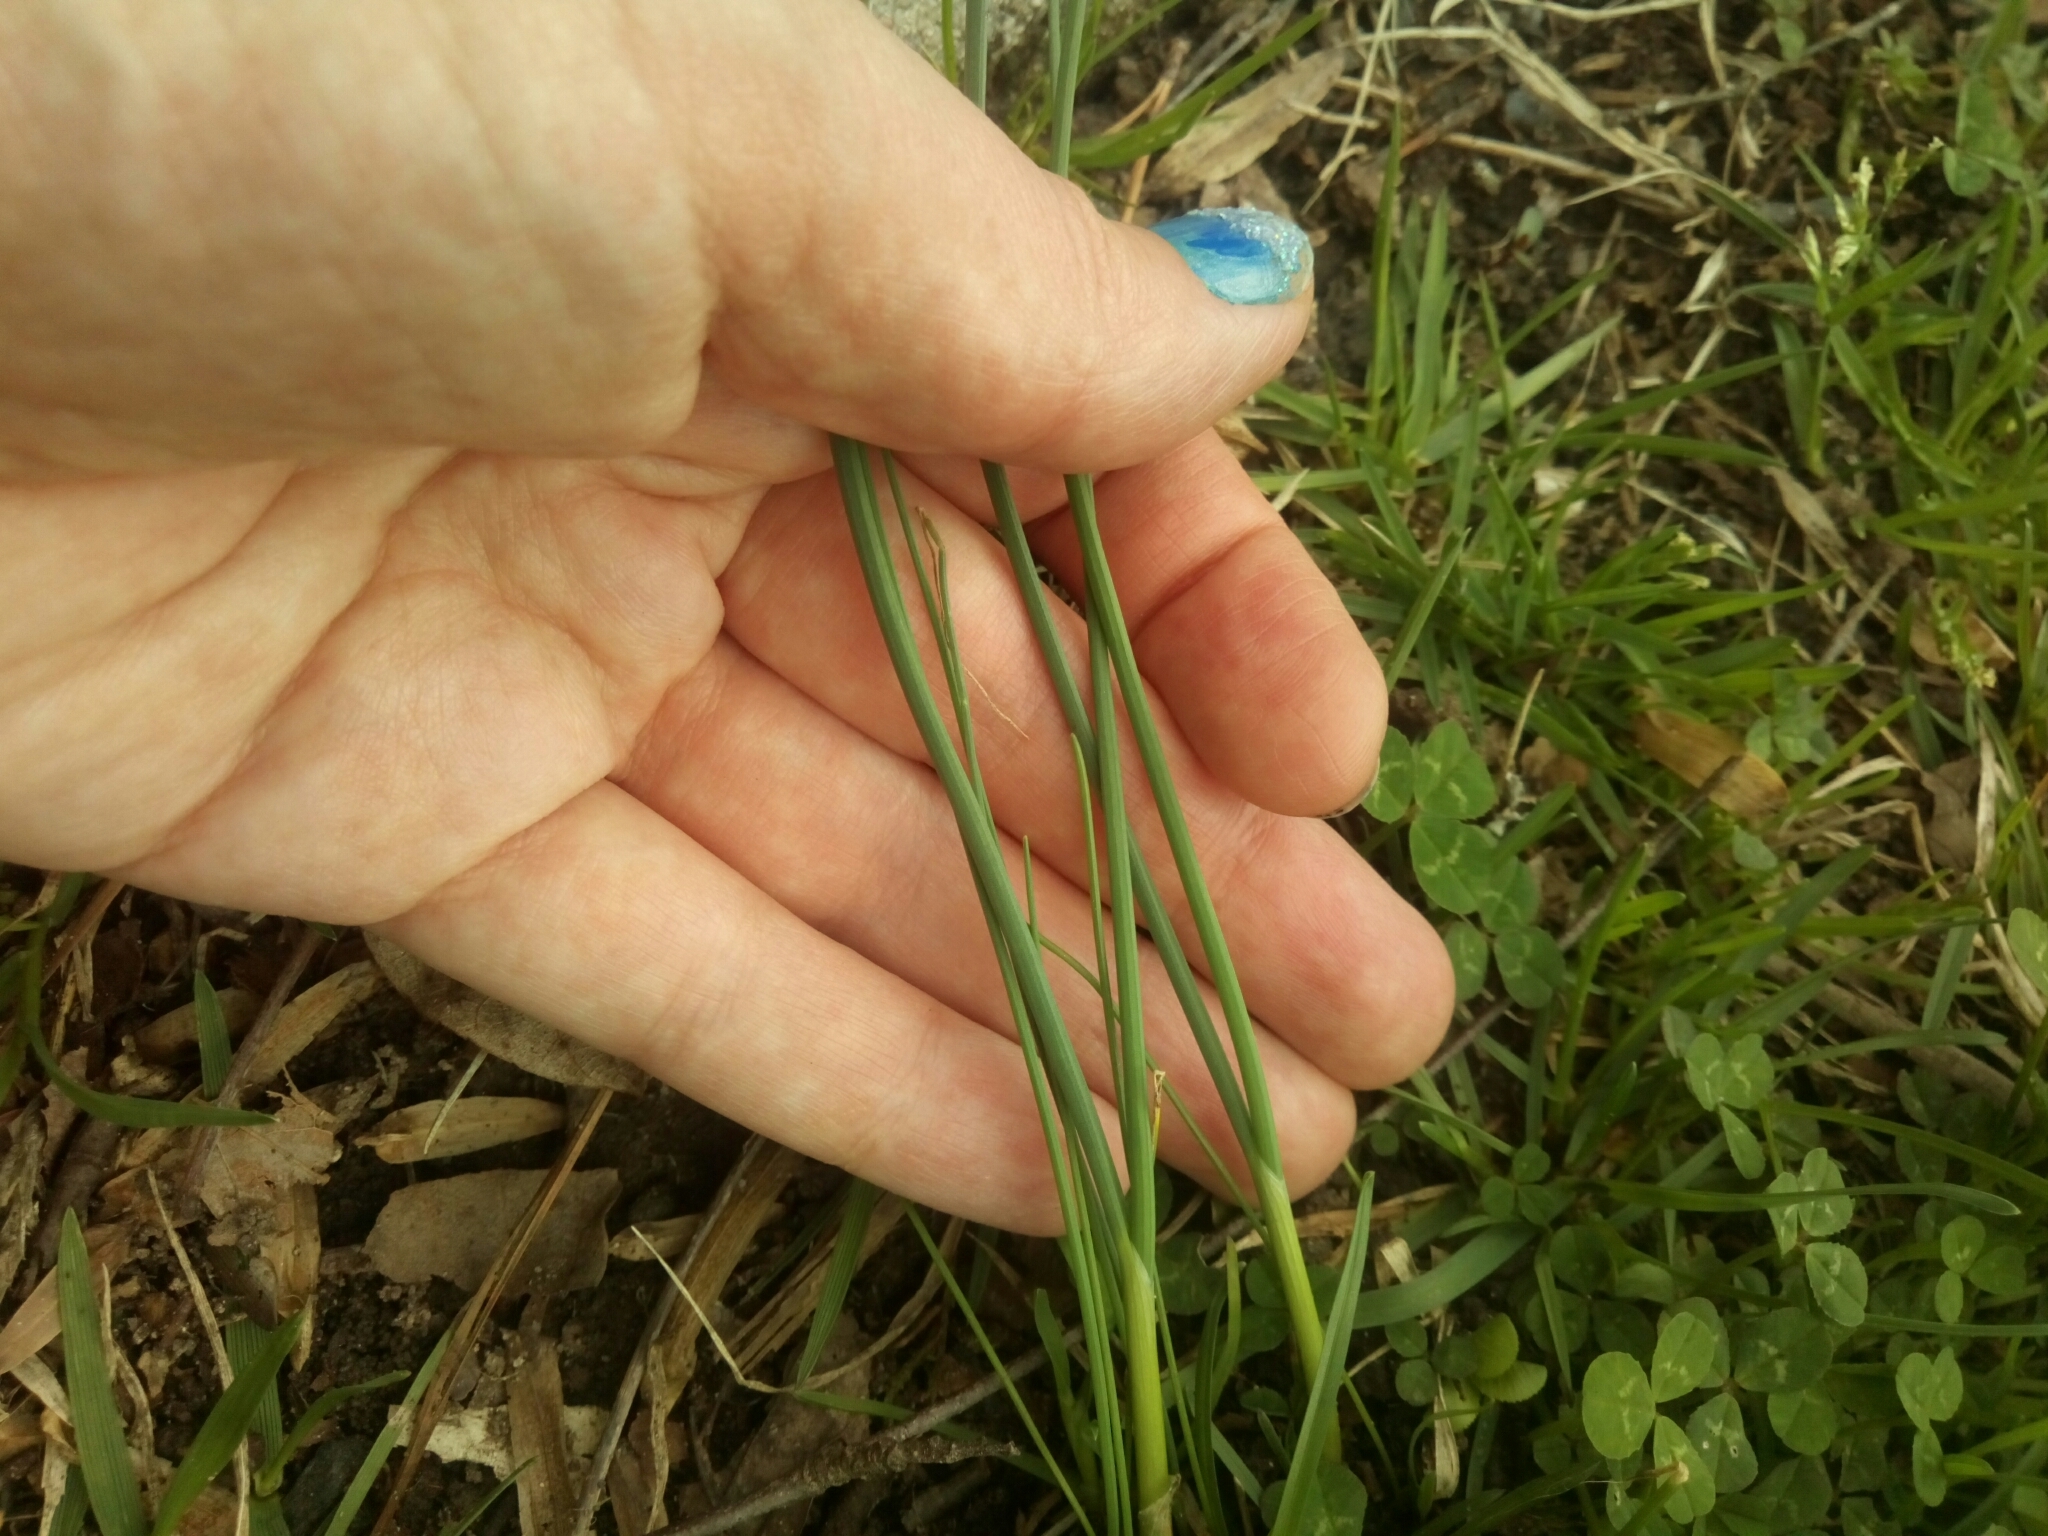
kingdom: Plantae
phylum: Tracheophyta
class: Liliopsida
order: Asparagales
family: Amaryllidaceae
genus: Allium
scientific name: Allium vineale
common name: Crow garlic
